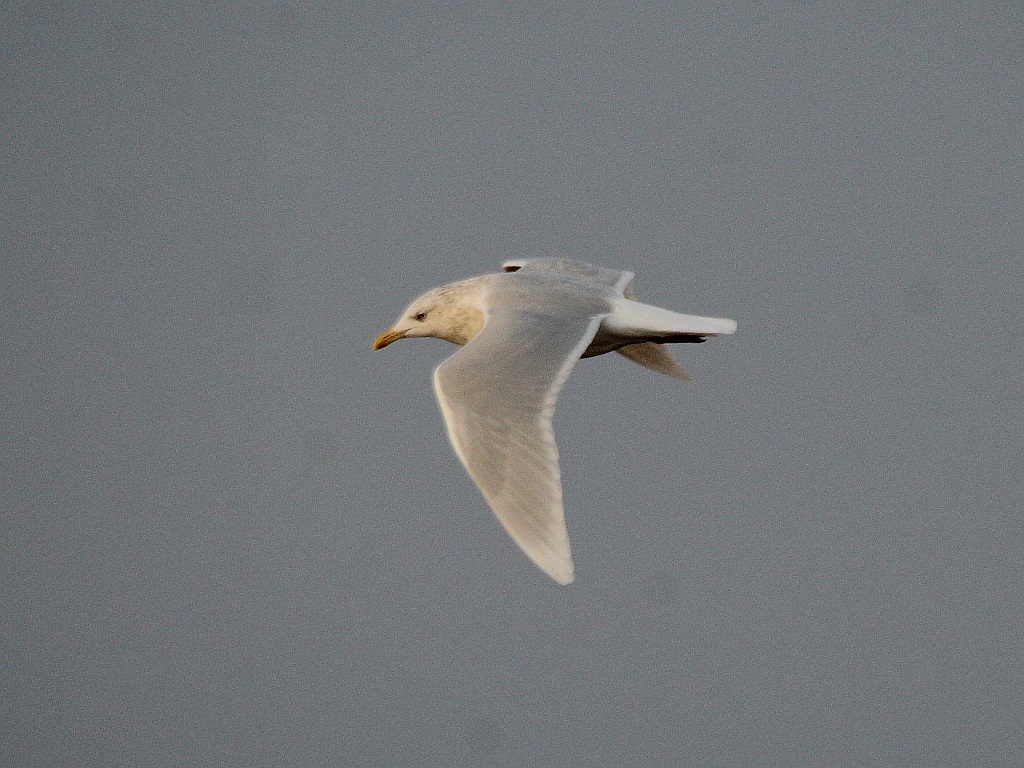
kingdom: Animalia
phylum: Chordata
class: Aves
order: Charadriiformes
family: Laridae
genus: Larus
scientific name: Larus hyperboreus
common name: Glaucous gull
